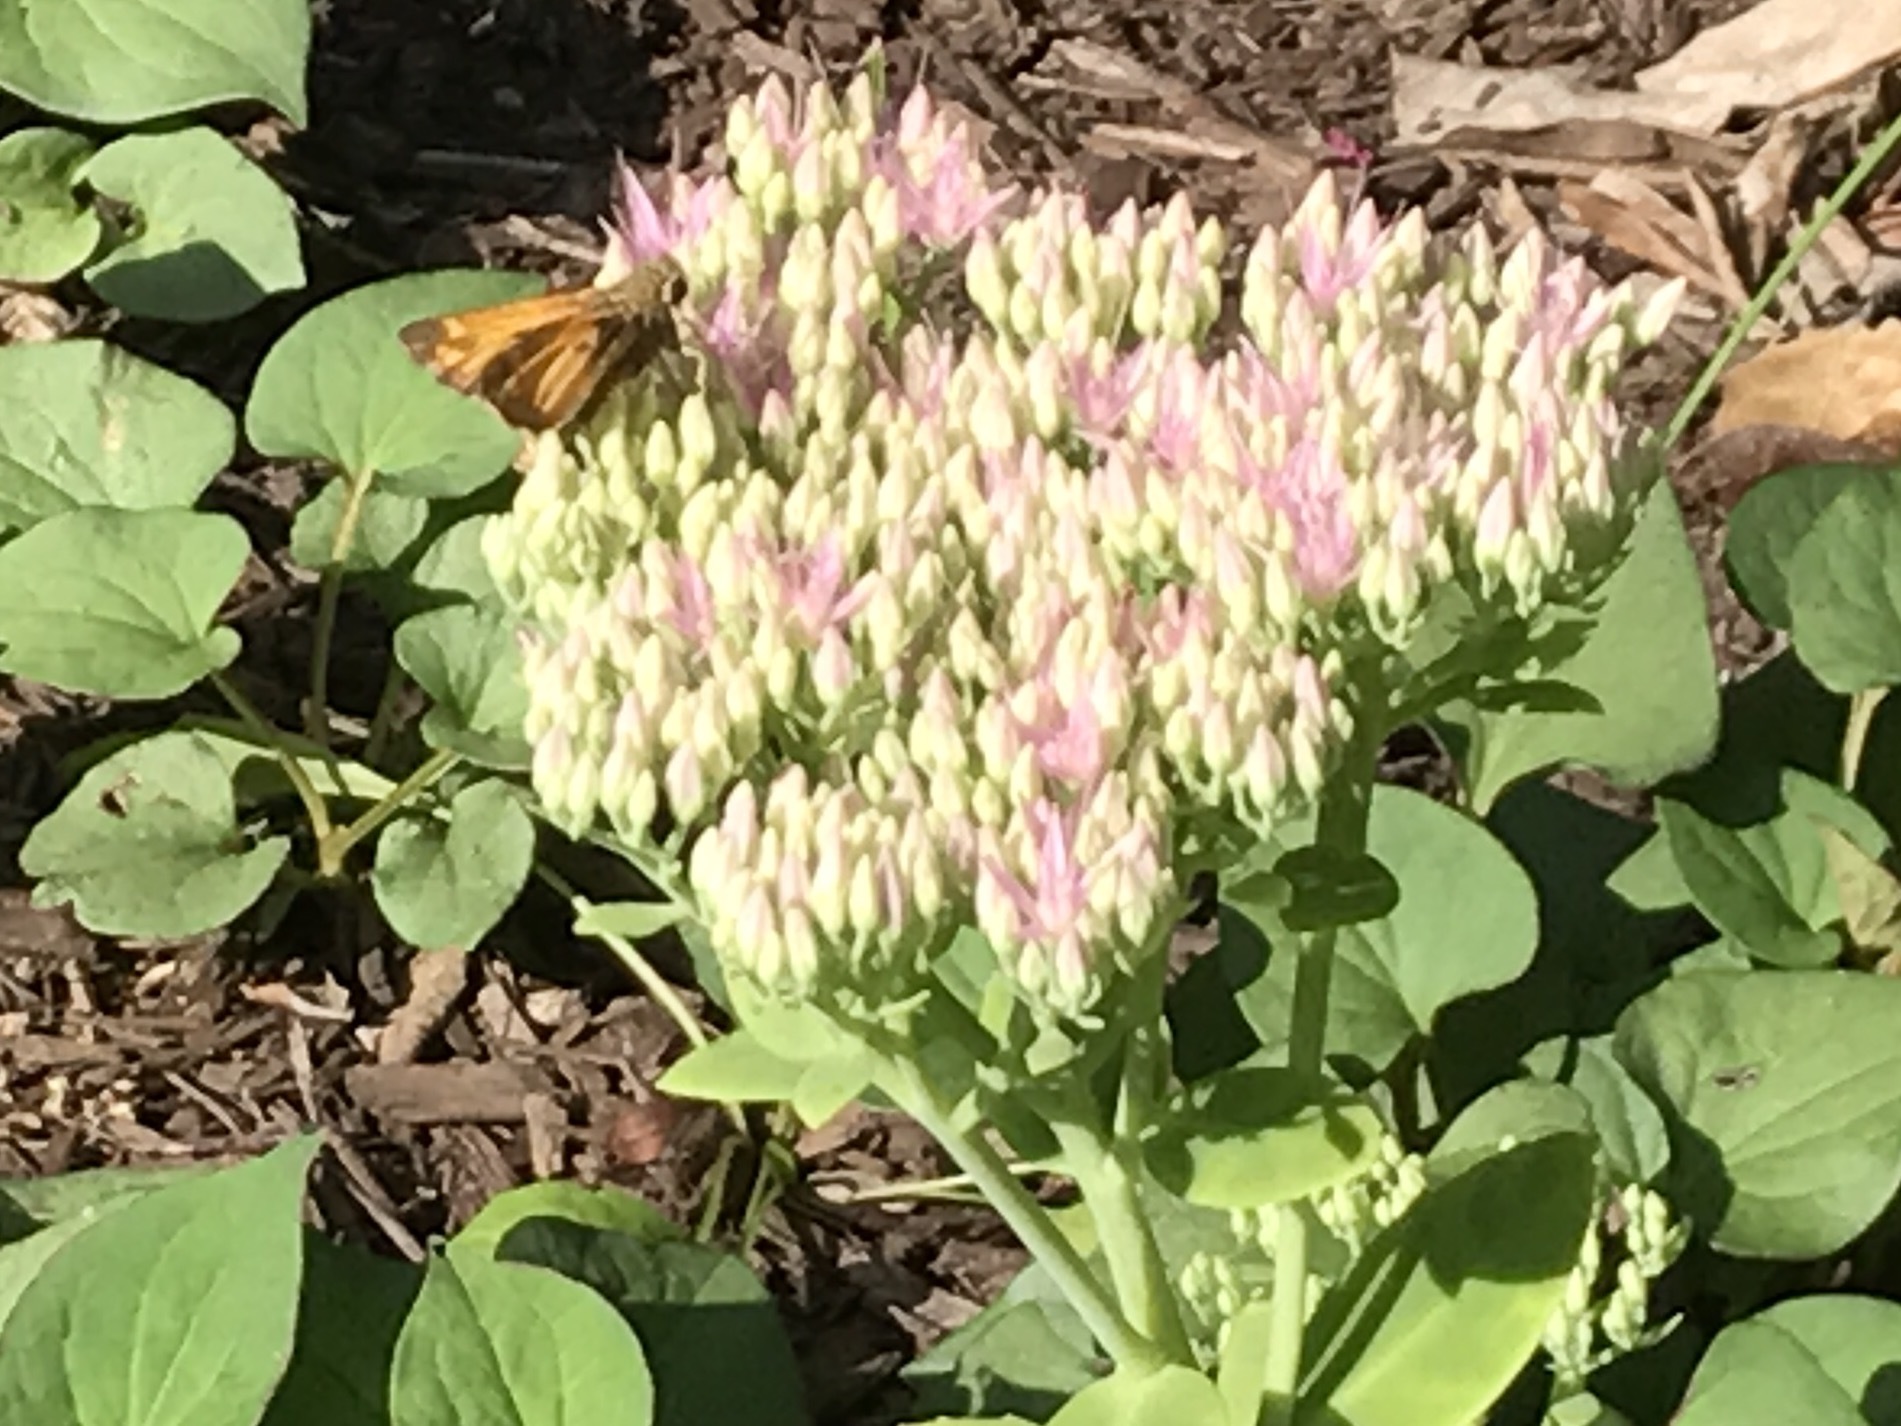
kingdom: Animalia
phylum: Arthropoda
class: Insecta
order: Lepidoptera
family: Hesperiidae
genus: Atalopedes
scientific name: Atalopedes
